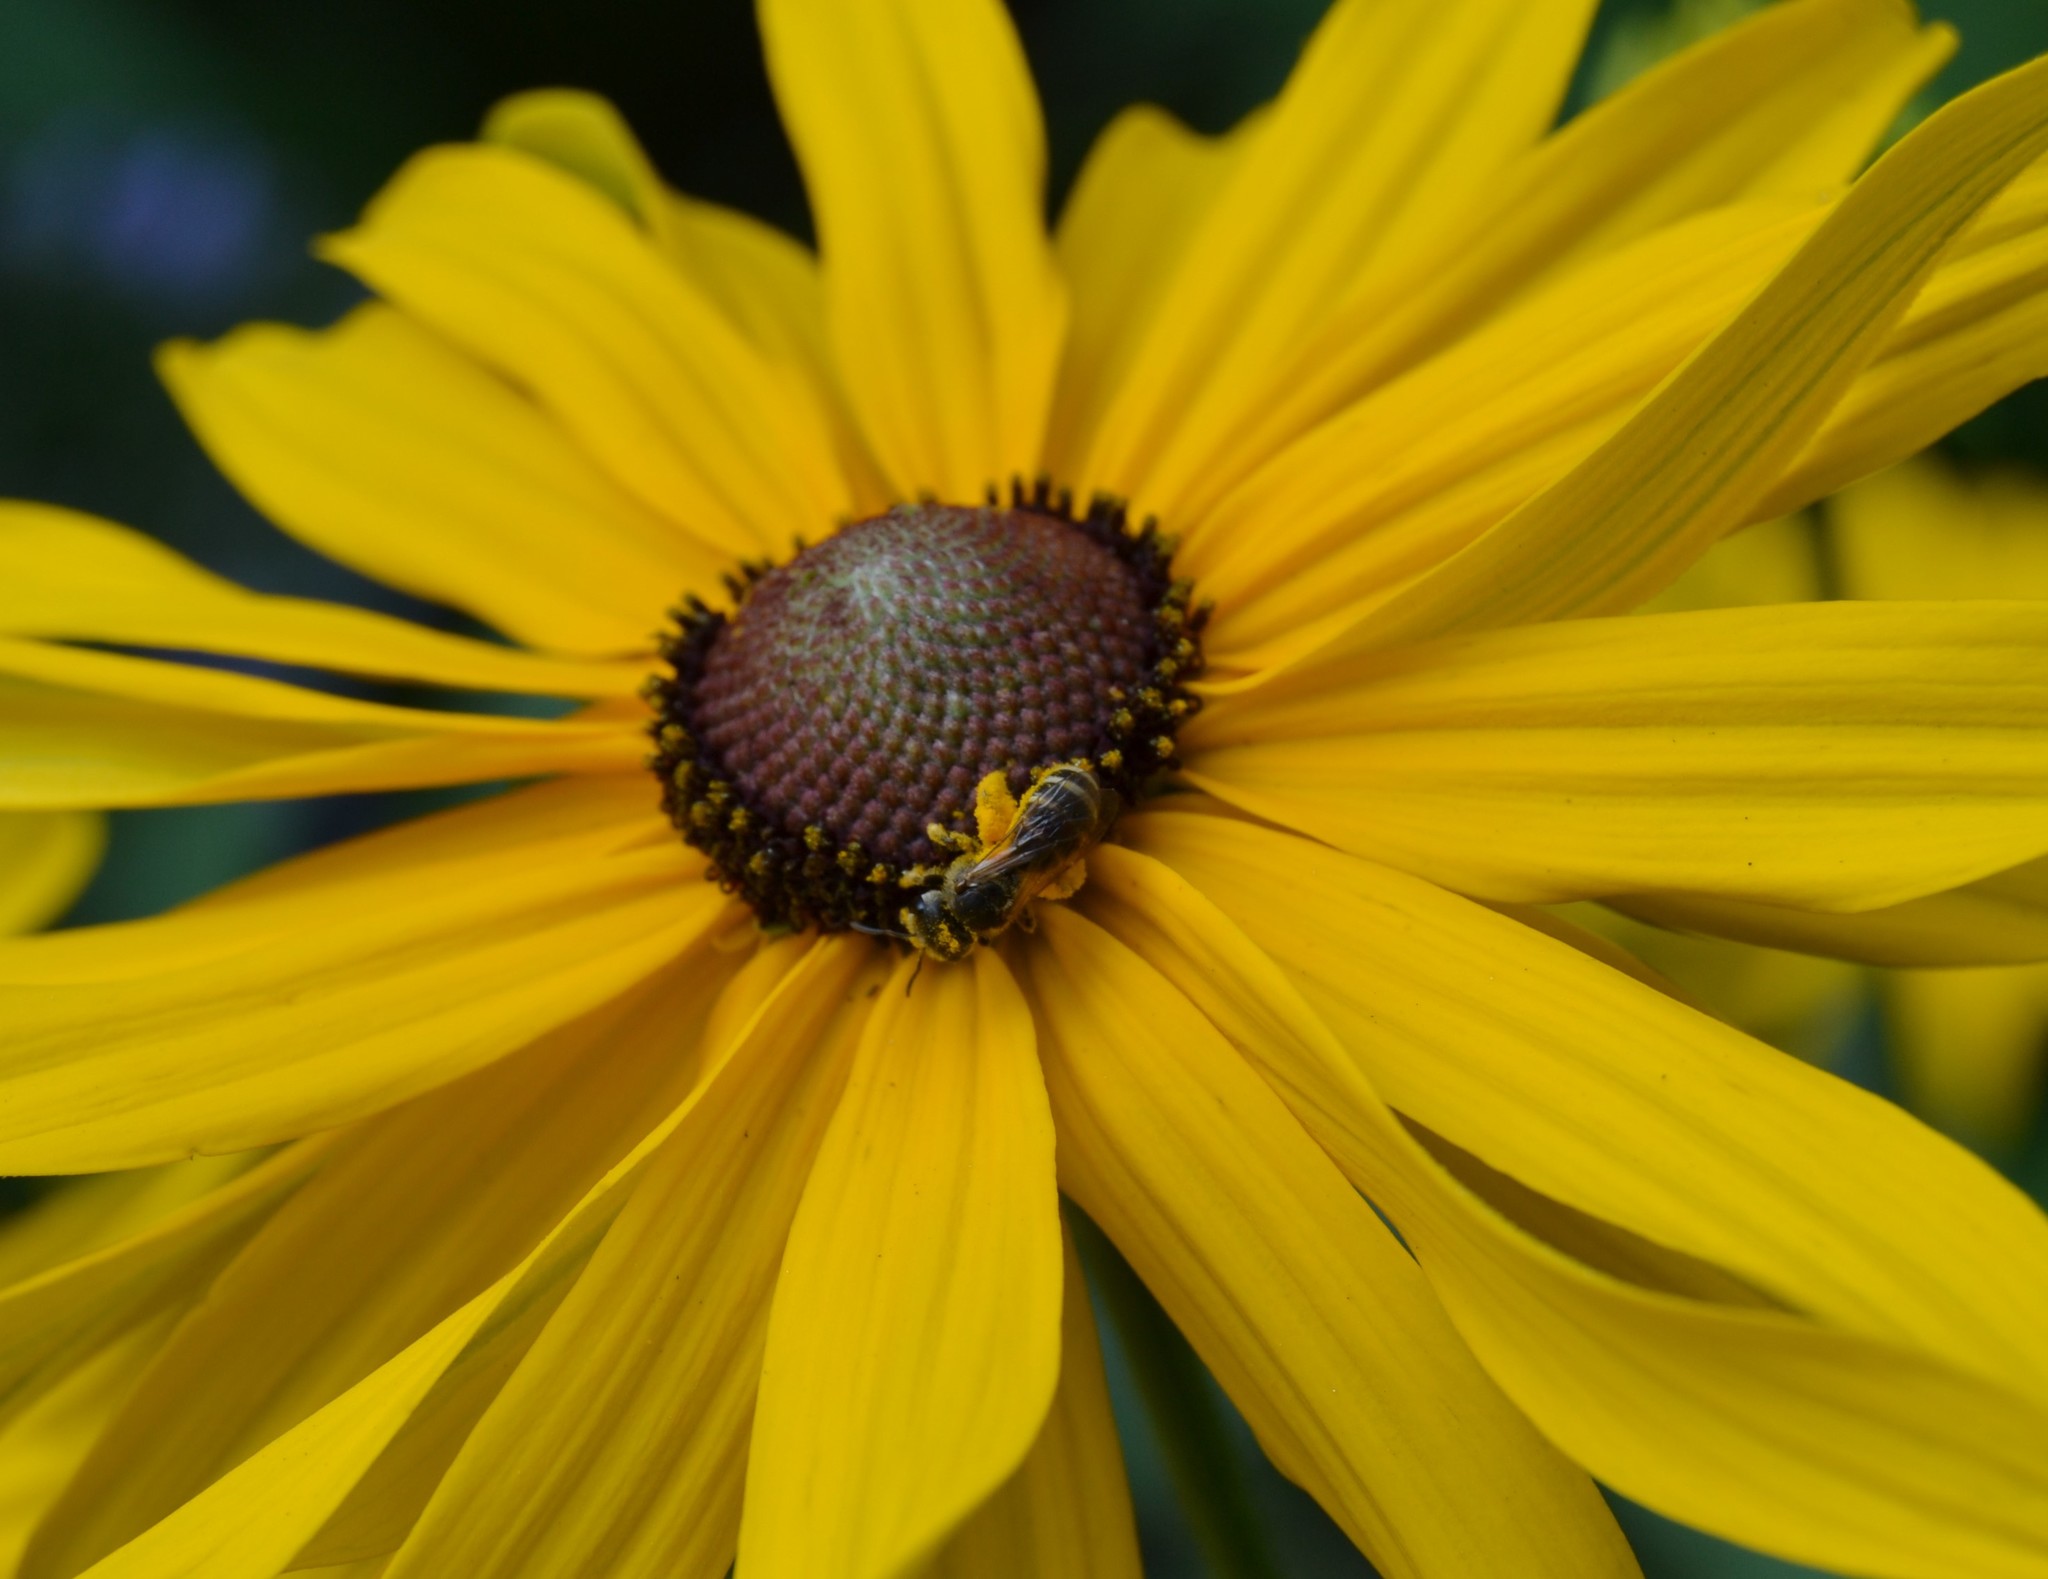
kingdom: Animalia
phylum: Arthropoda
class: Insecta
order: Hymenoptera
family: Halictidae
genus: Halictus
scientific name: Halictus ligatus
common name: Ligated furrow bee
